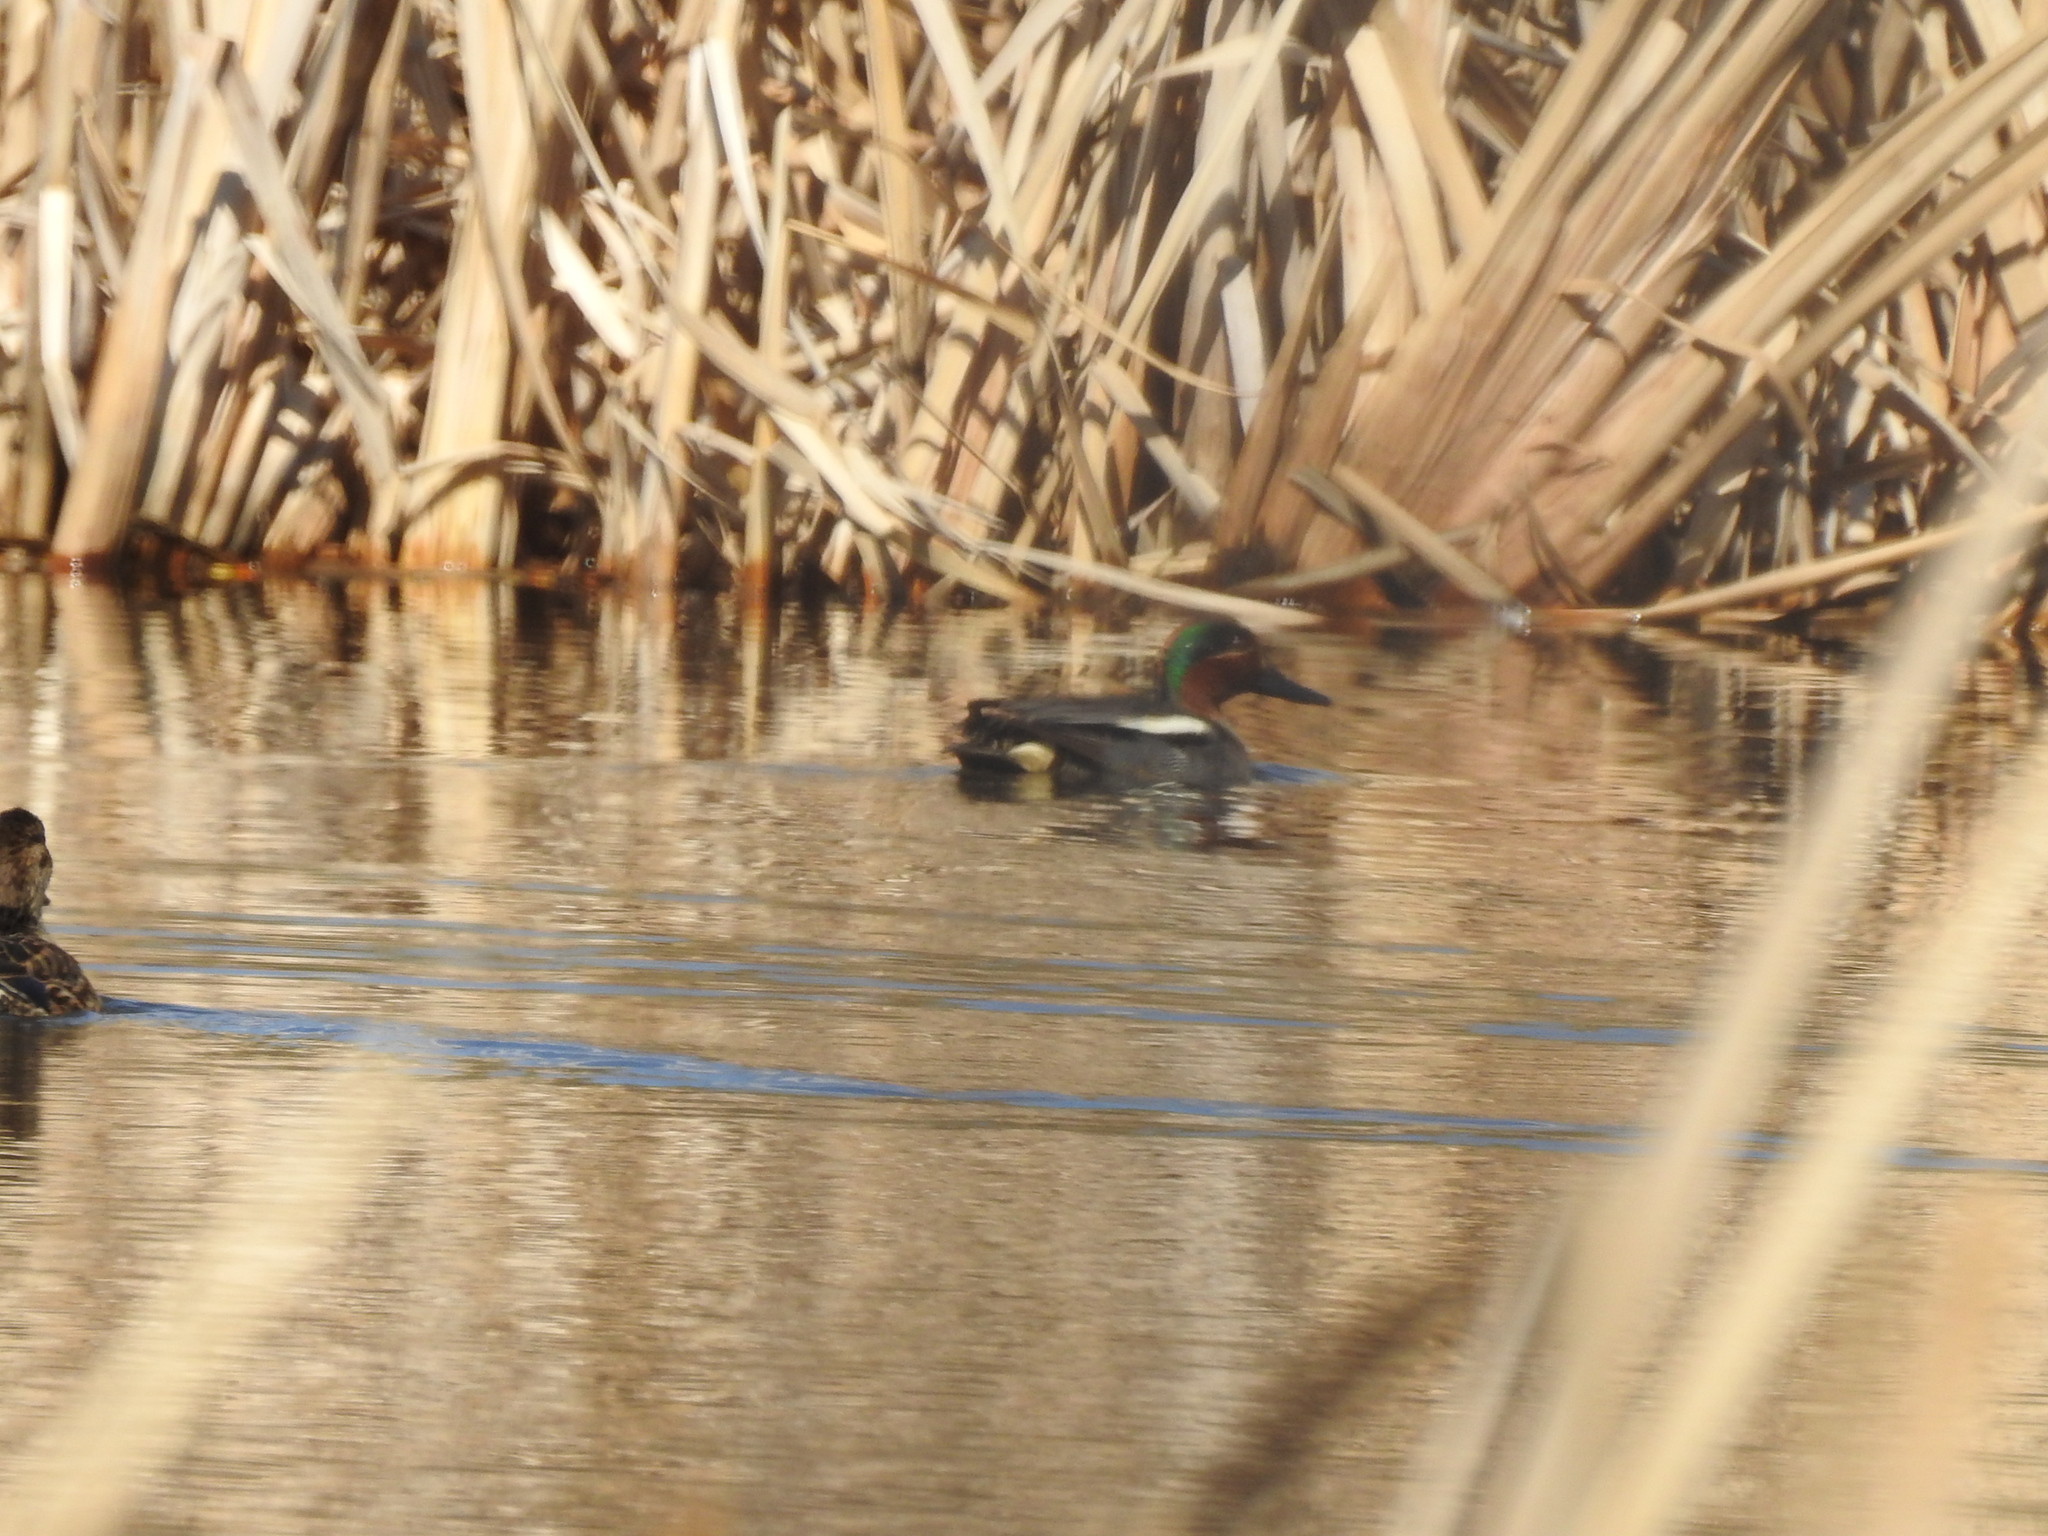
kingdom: Animalia
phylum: Chordata
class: Aves
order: Anseriformes
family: Anatidae
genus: Anas
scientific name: Anas crecca
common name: Eurasian teal
